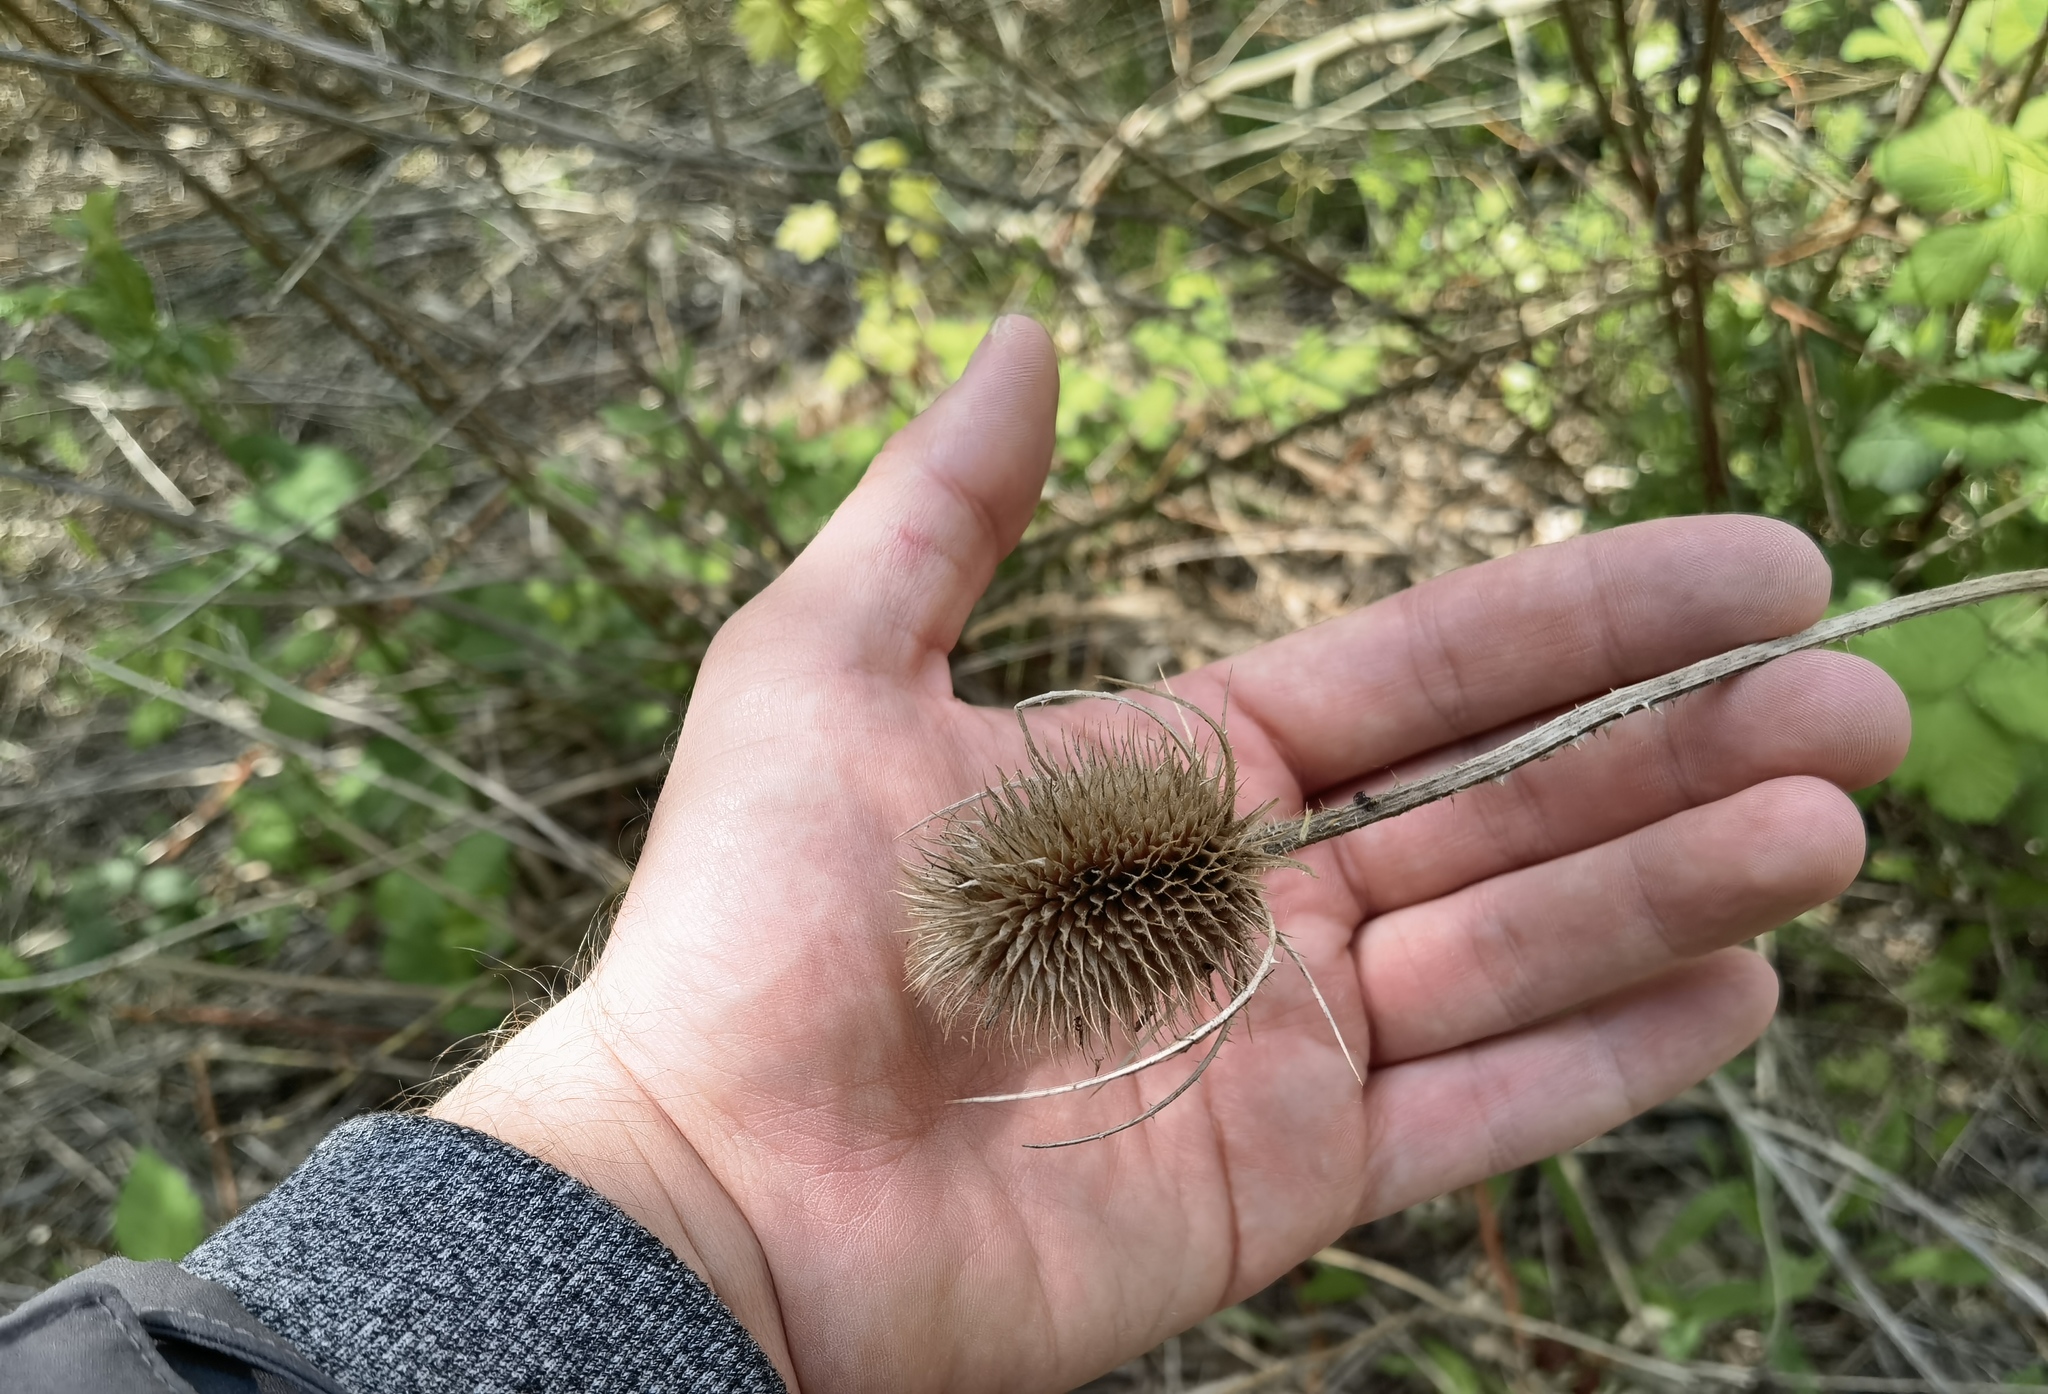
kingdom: Plantae
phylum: Tracheophyta
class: Magnoliopsida
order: Dipsacales
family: Caprifoliaceae
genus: Dipsacus
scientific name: Dipsacus fullonum
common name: Teasel
